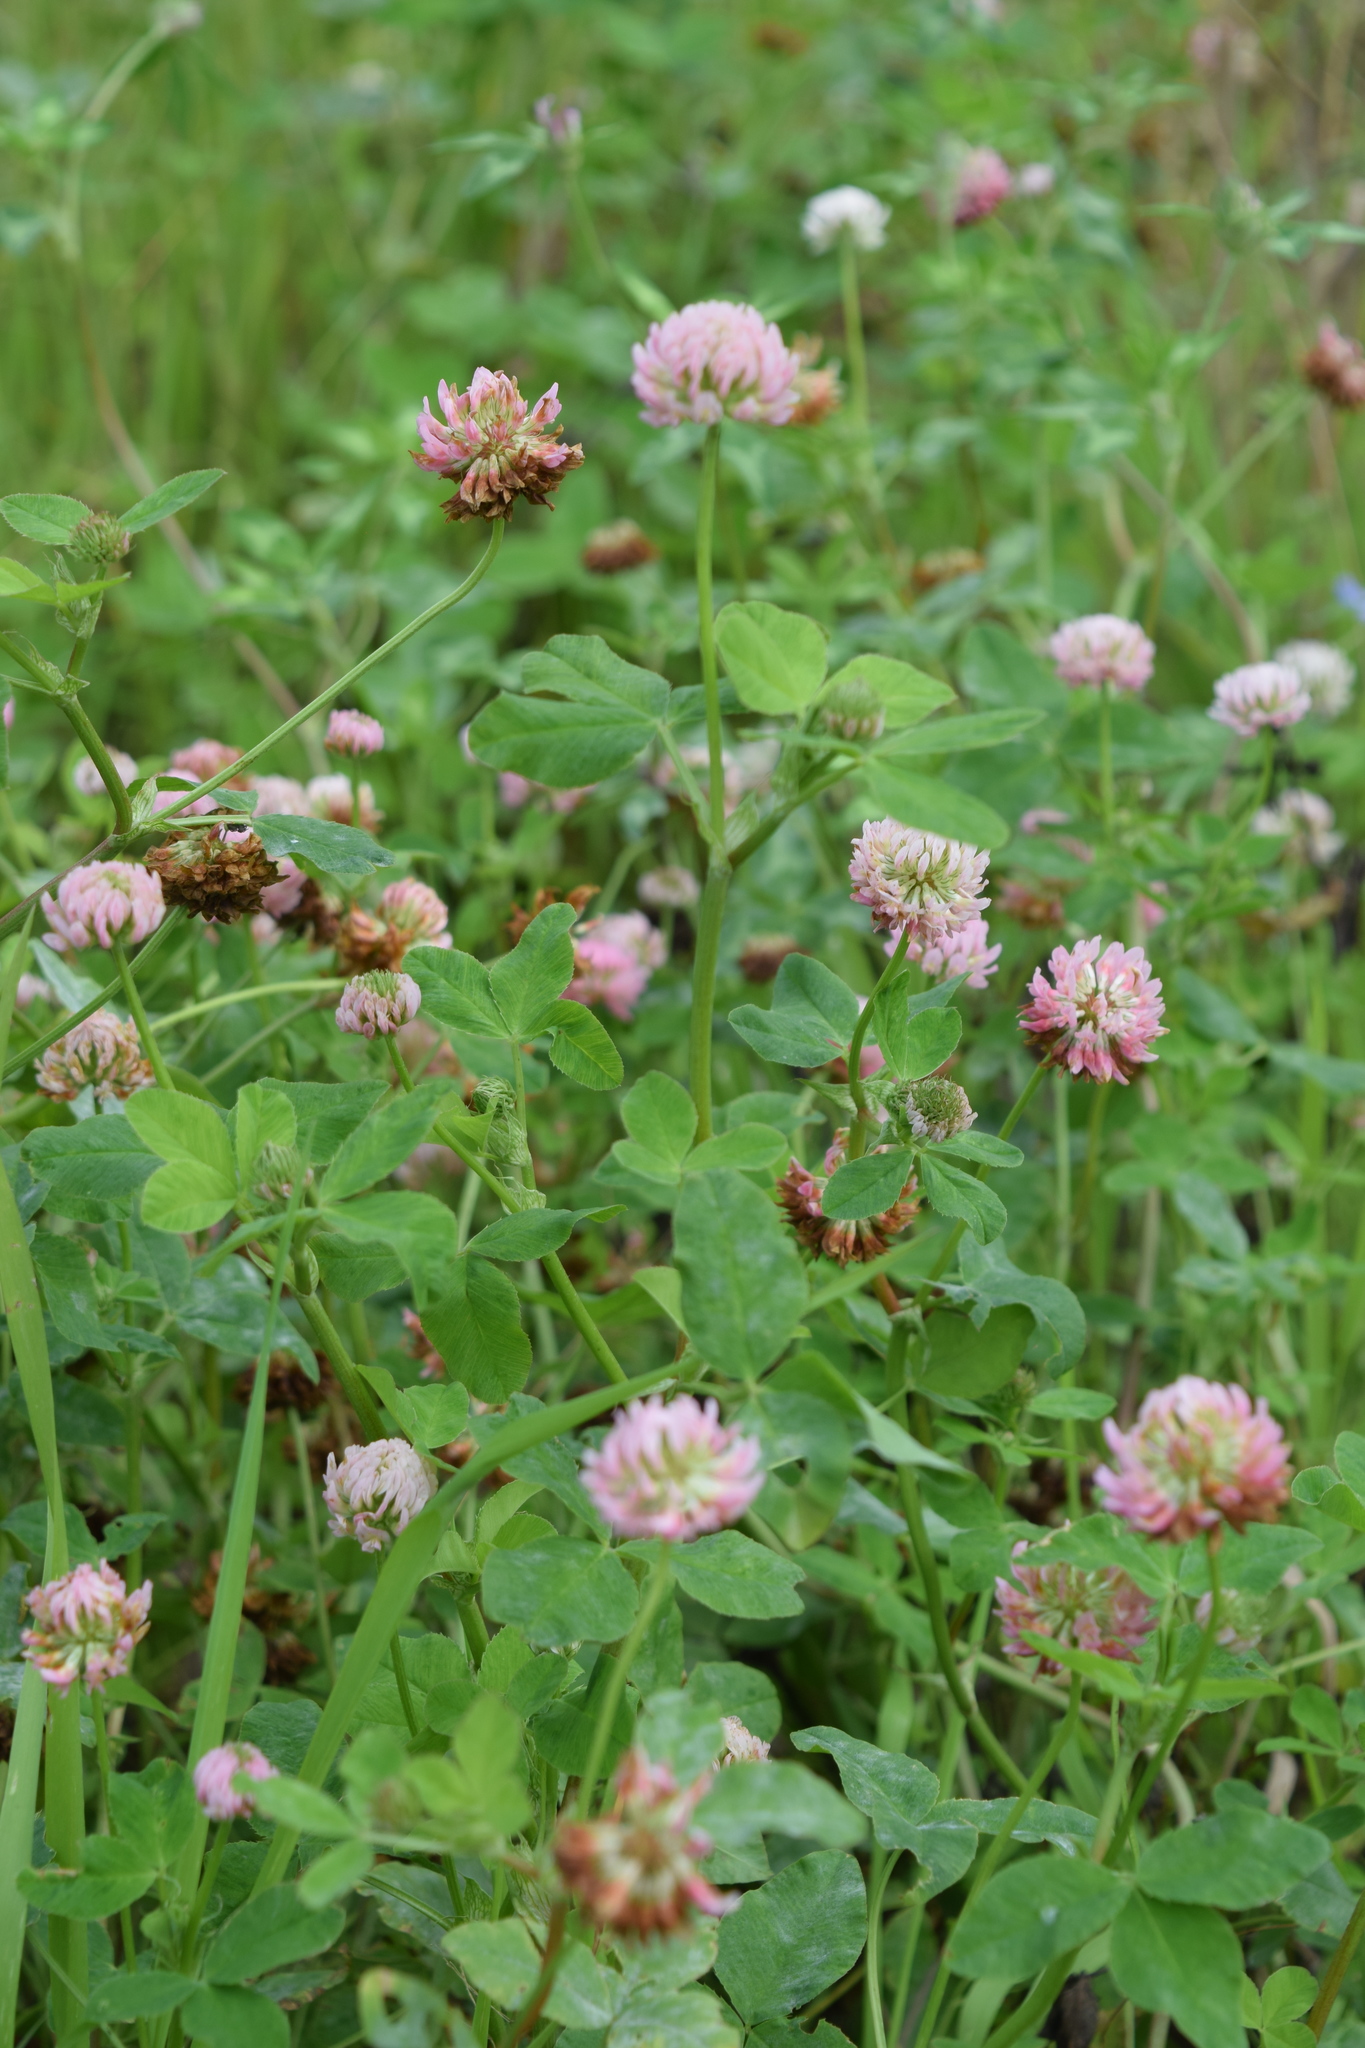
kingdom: Plantae
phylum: Tracheophyta
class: Magnoliopsida
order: Fabales
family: Fabaceae
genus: Trifolium
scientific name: Trifolium hybridum
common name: Alsike clover
